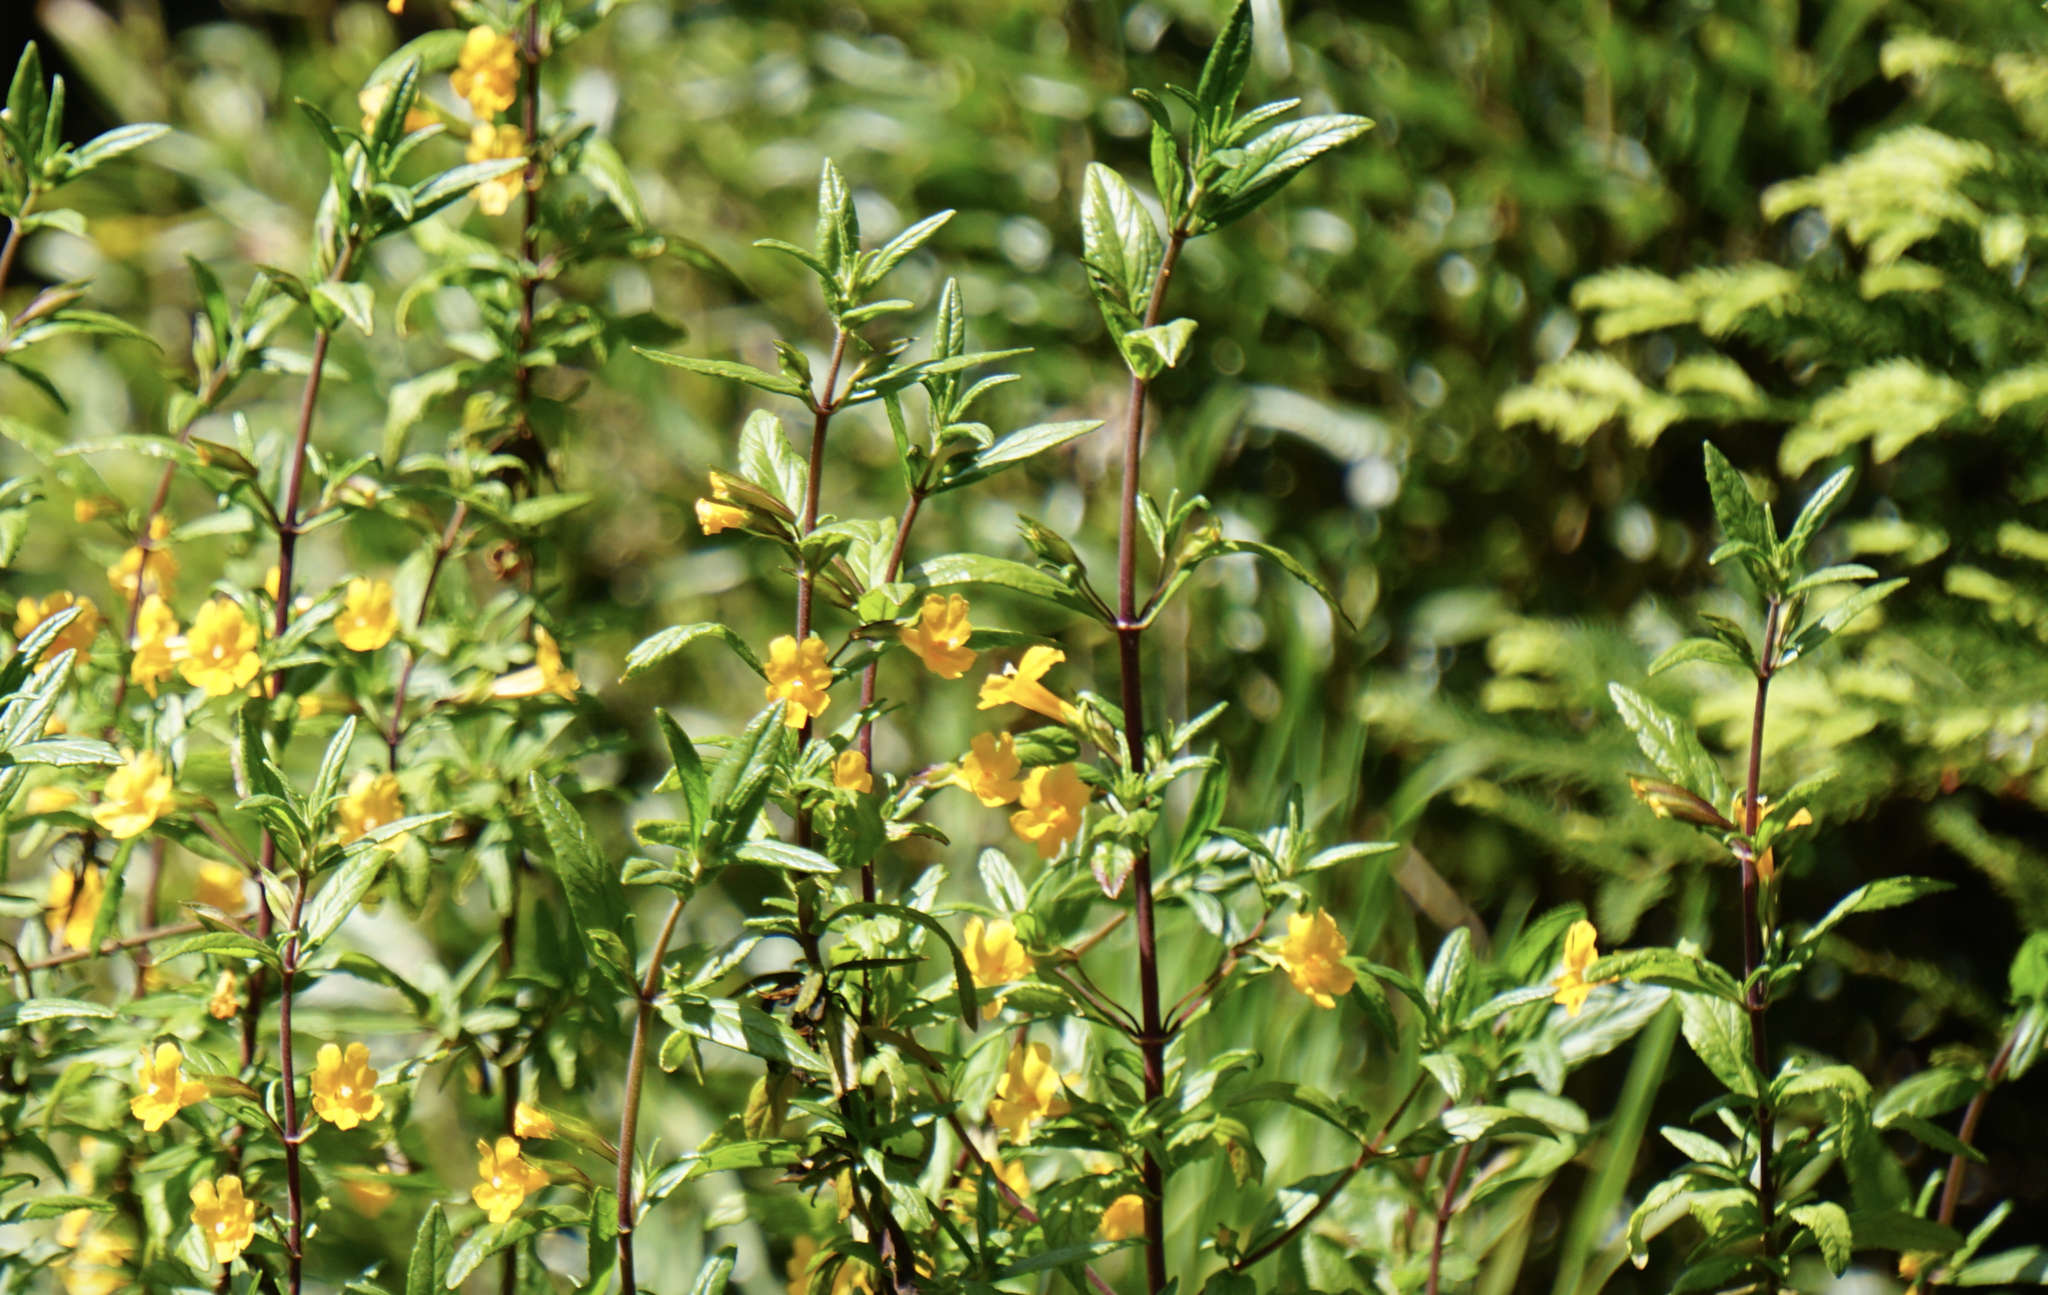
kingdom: Plantae
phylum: Tracheophyta
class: Magnoliopsida
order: Lamiales
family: Phrymaceae
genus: Diplacus
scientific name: Diplacus aurantiacus
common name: Bush monkey-flower
